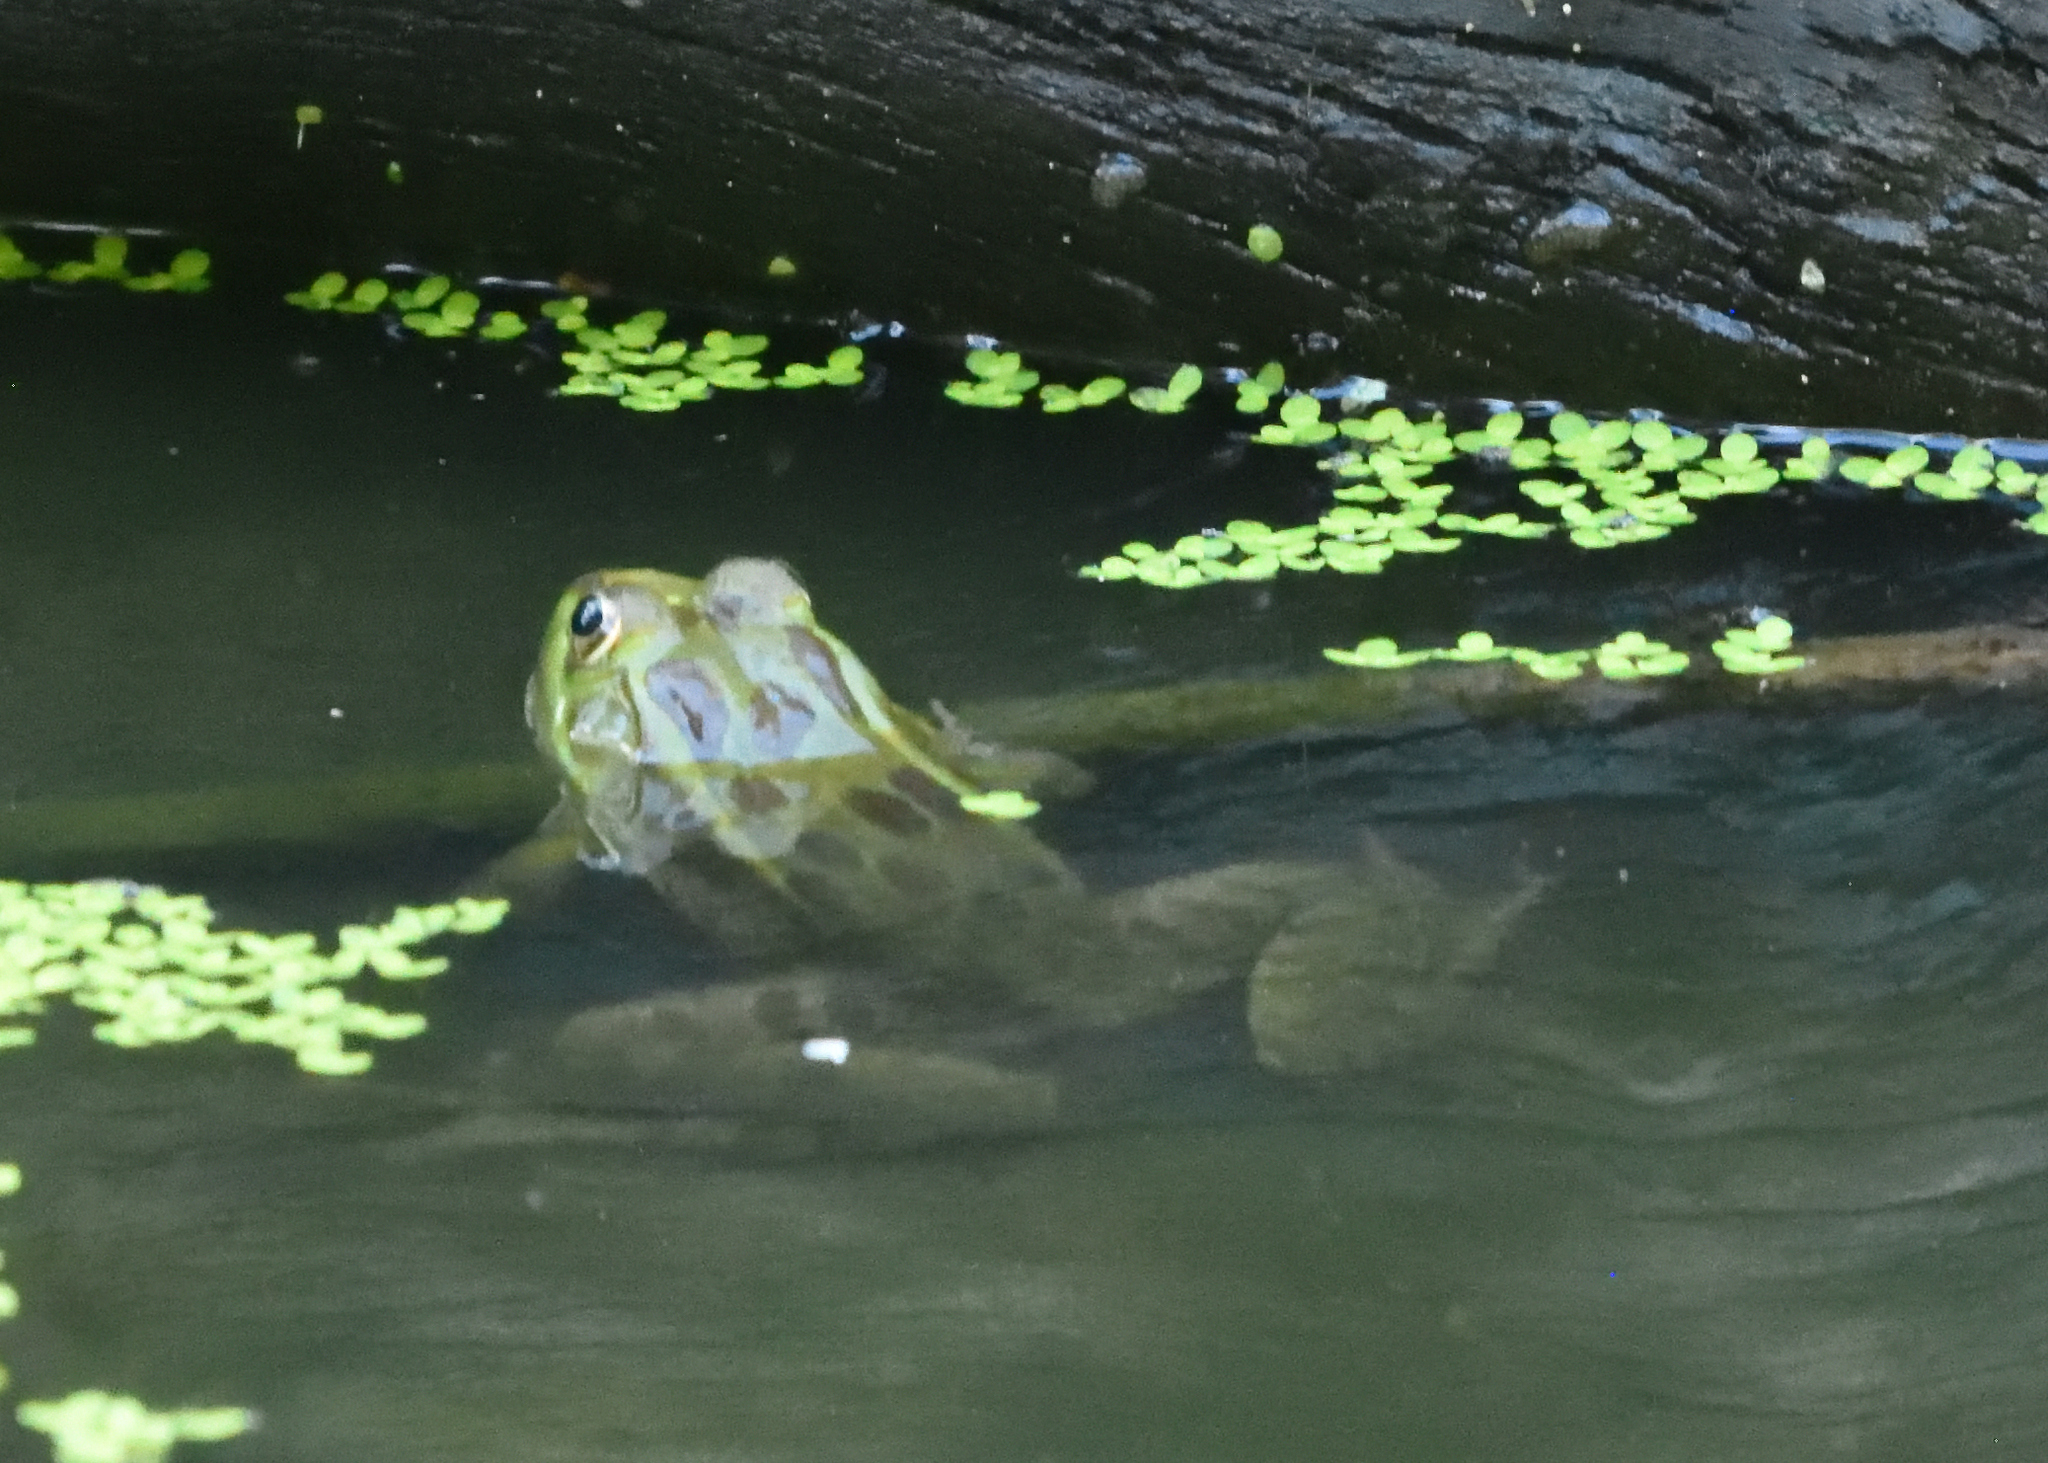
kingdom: Animalia
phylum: Chordata
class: Amphibia
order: Anura
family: Ranidae
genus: Lithobates
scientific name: Lithobates chiricahuensis
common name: Chiricahua leopard frog
